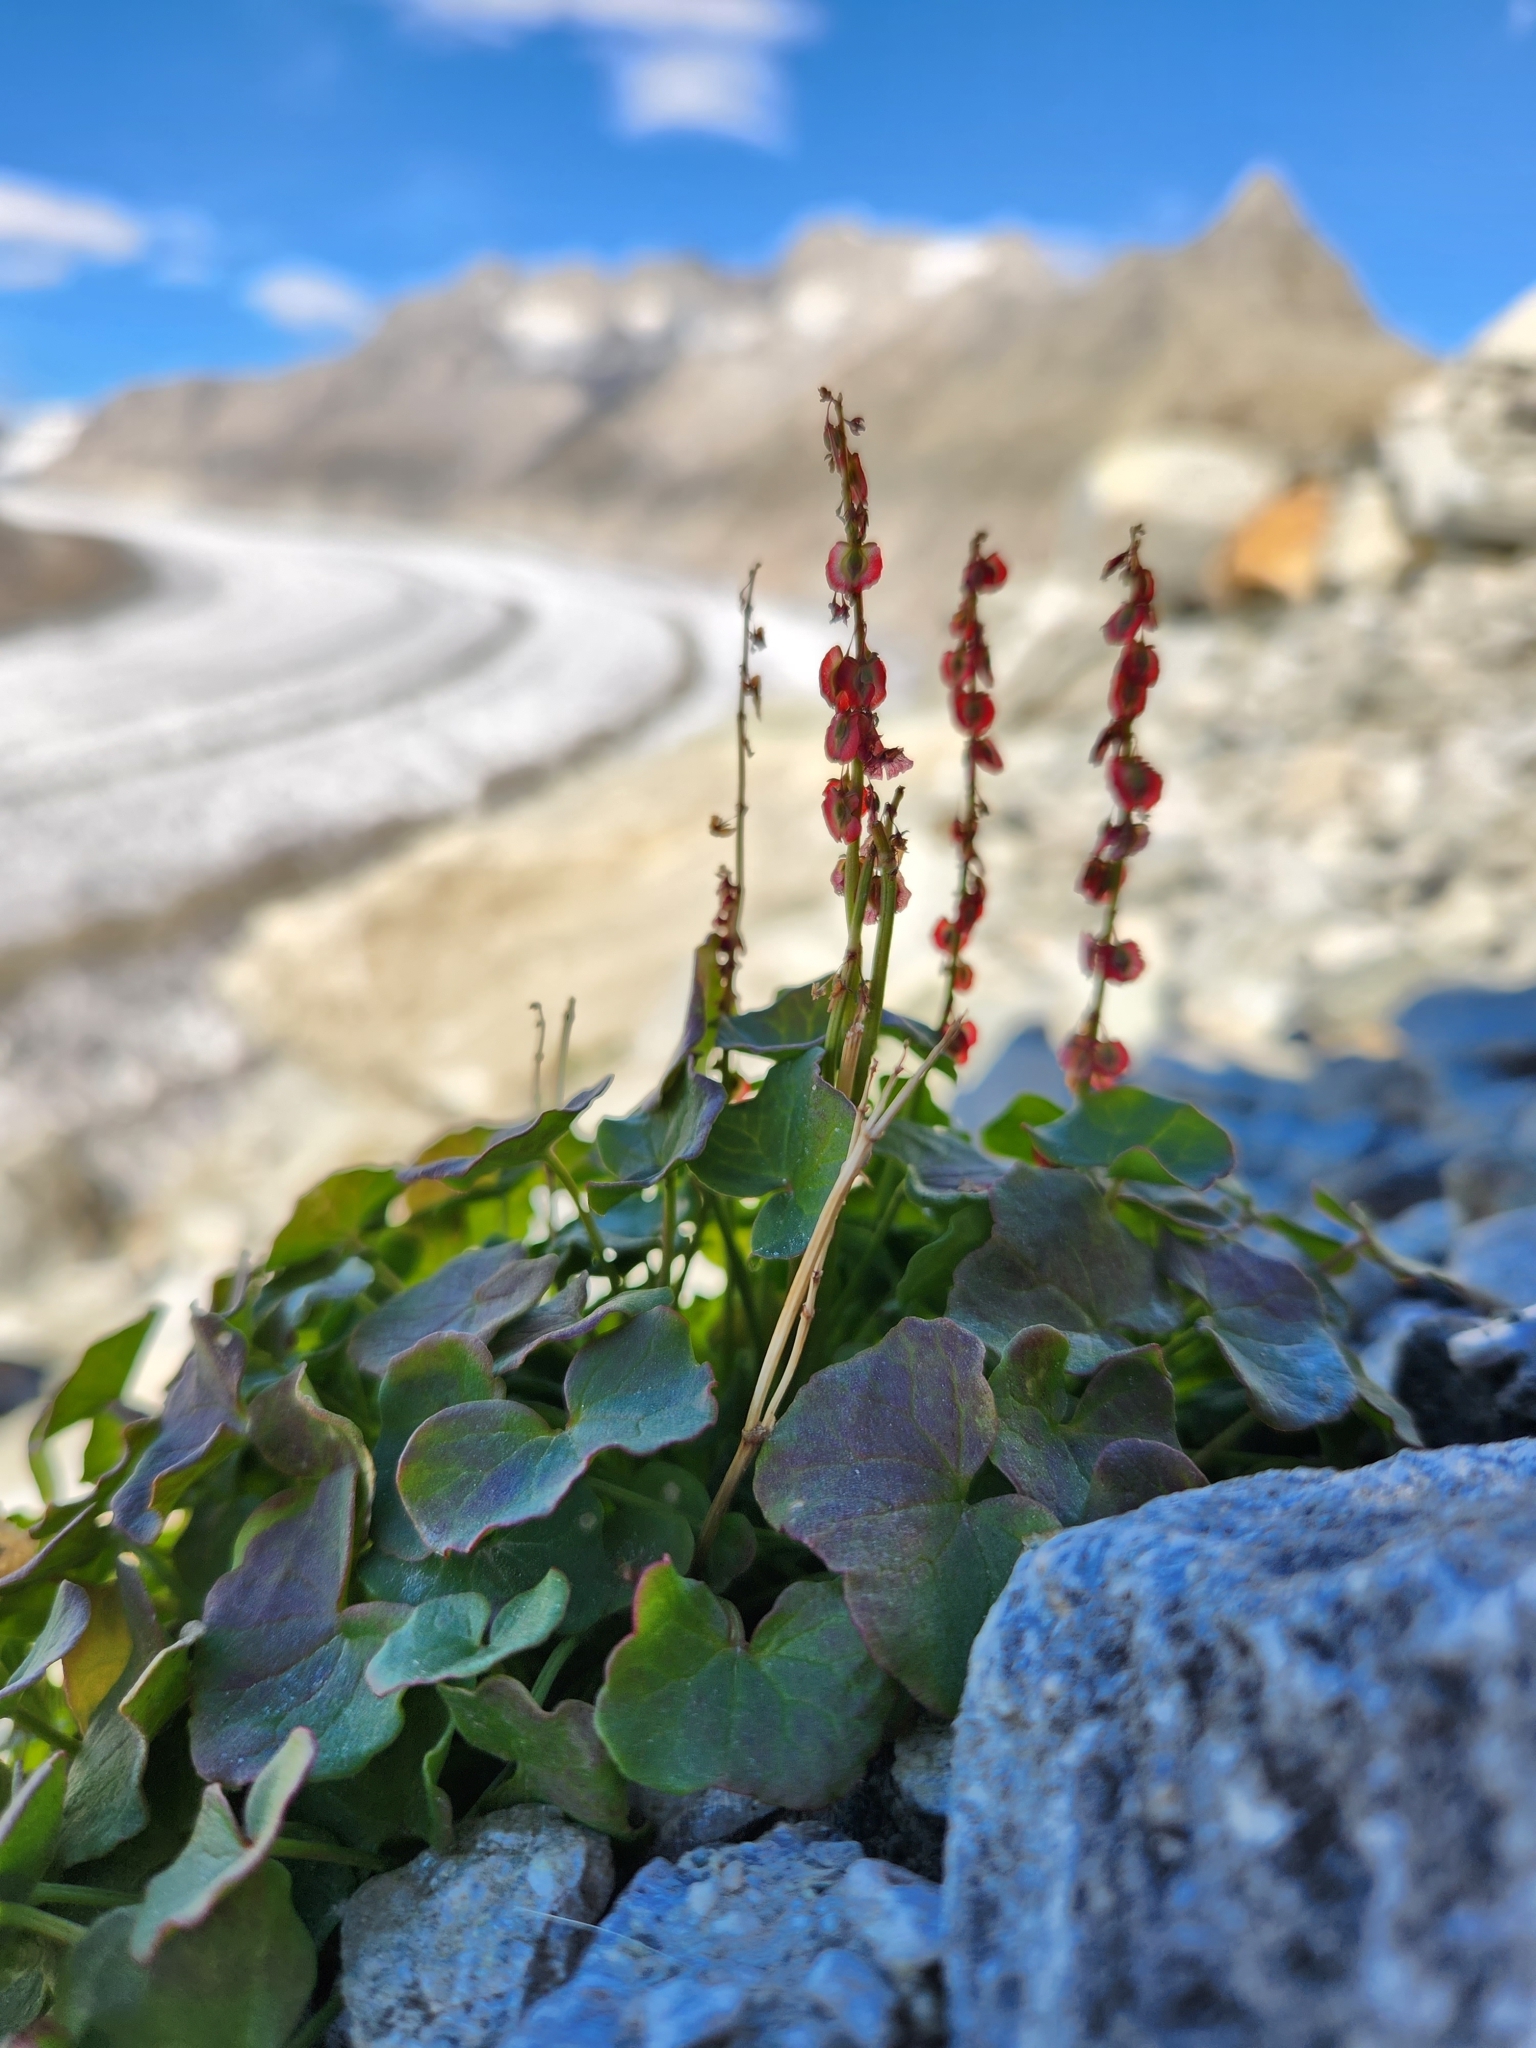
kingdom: Plantae
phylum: Tracheophyta
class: Magnoliopsida
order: Caryophyllales
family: Polygonaceae
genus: Oxyria
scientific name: Oxyria digyna
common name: Alpine mountain-sorrel
